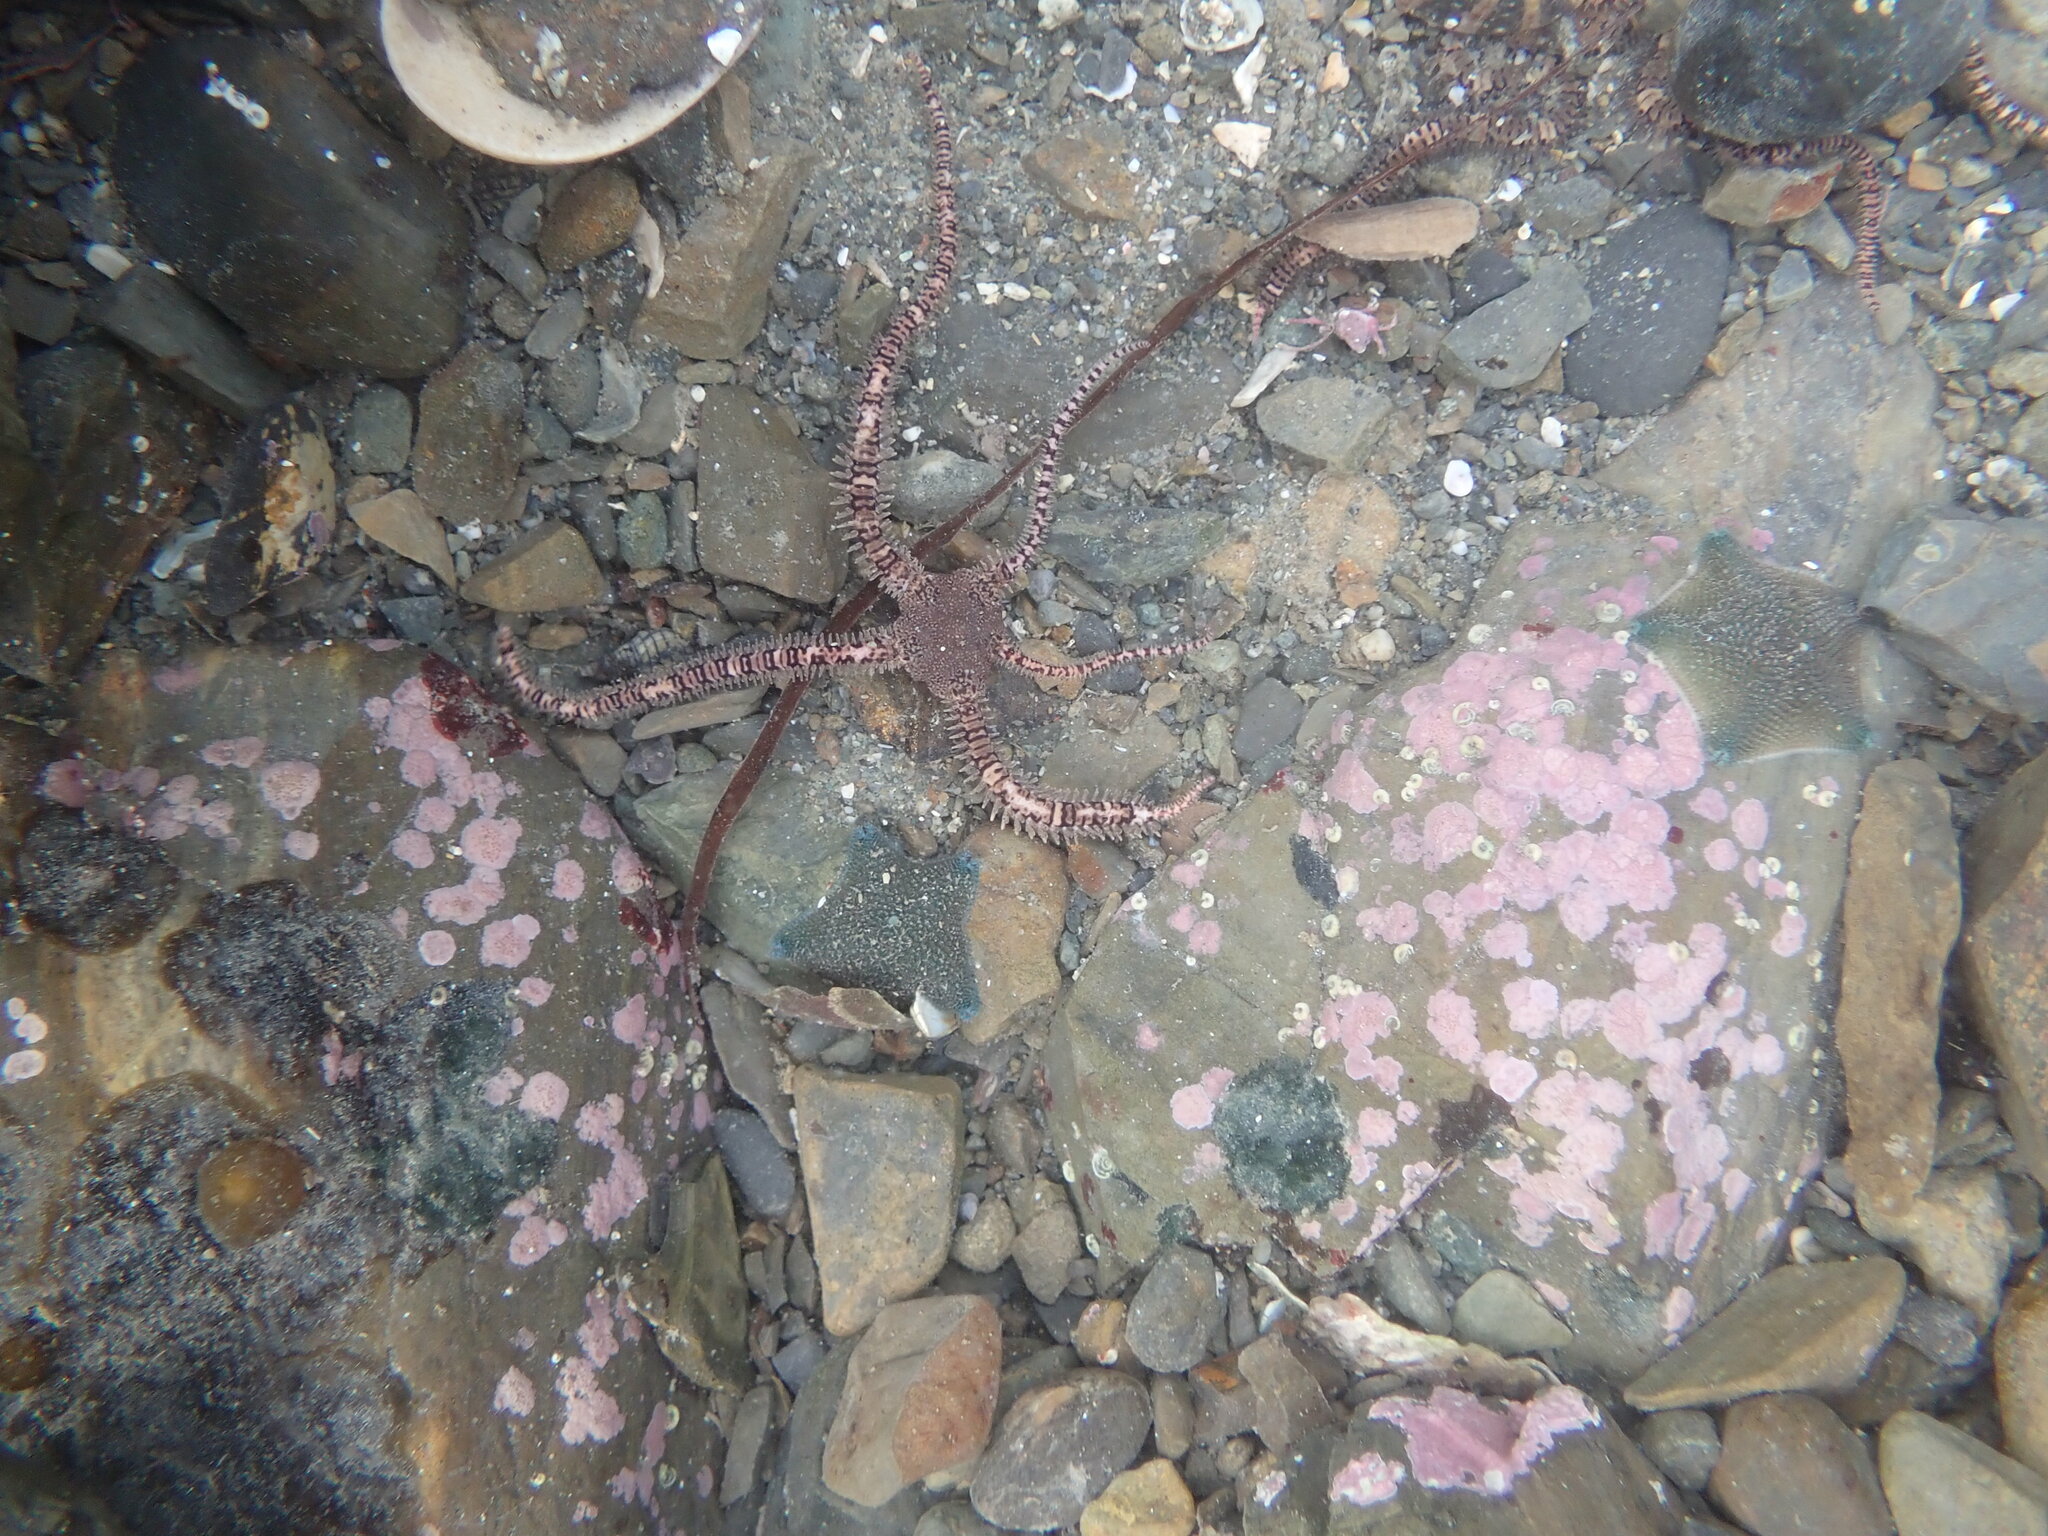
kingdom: Animalia
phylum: Echinodermata
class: Ophiuroidea
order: Amphilepidida
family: Ophionereididae
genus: Ophionereis
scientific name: Ophionereis fasciata
